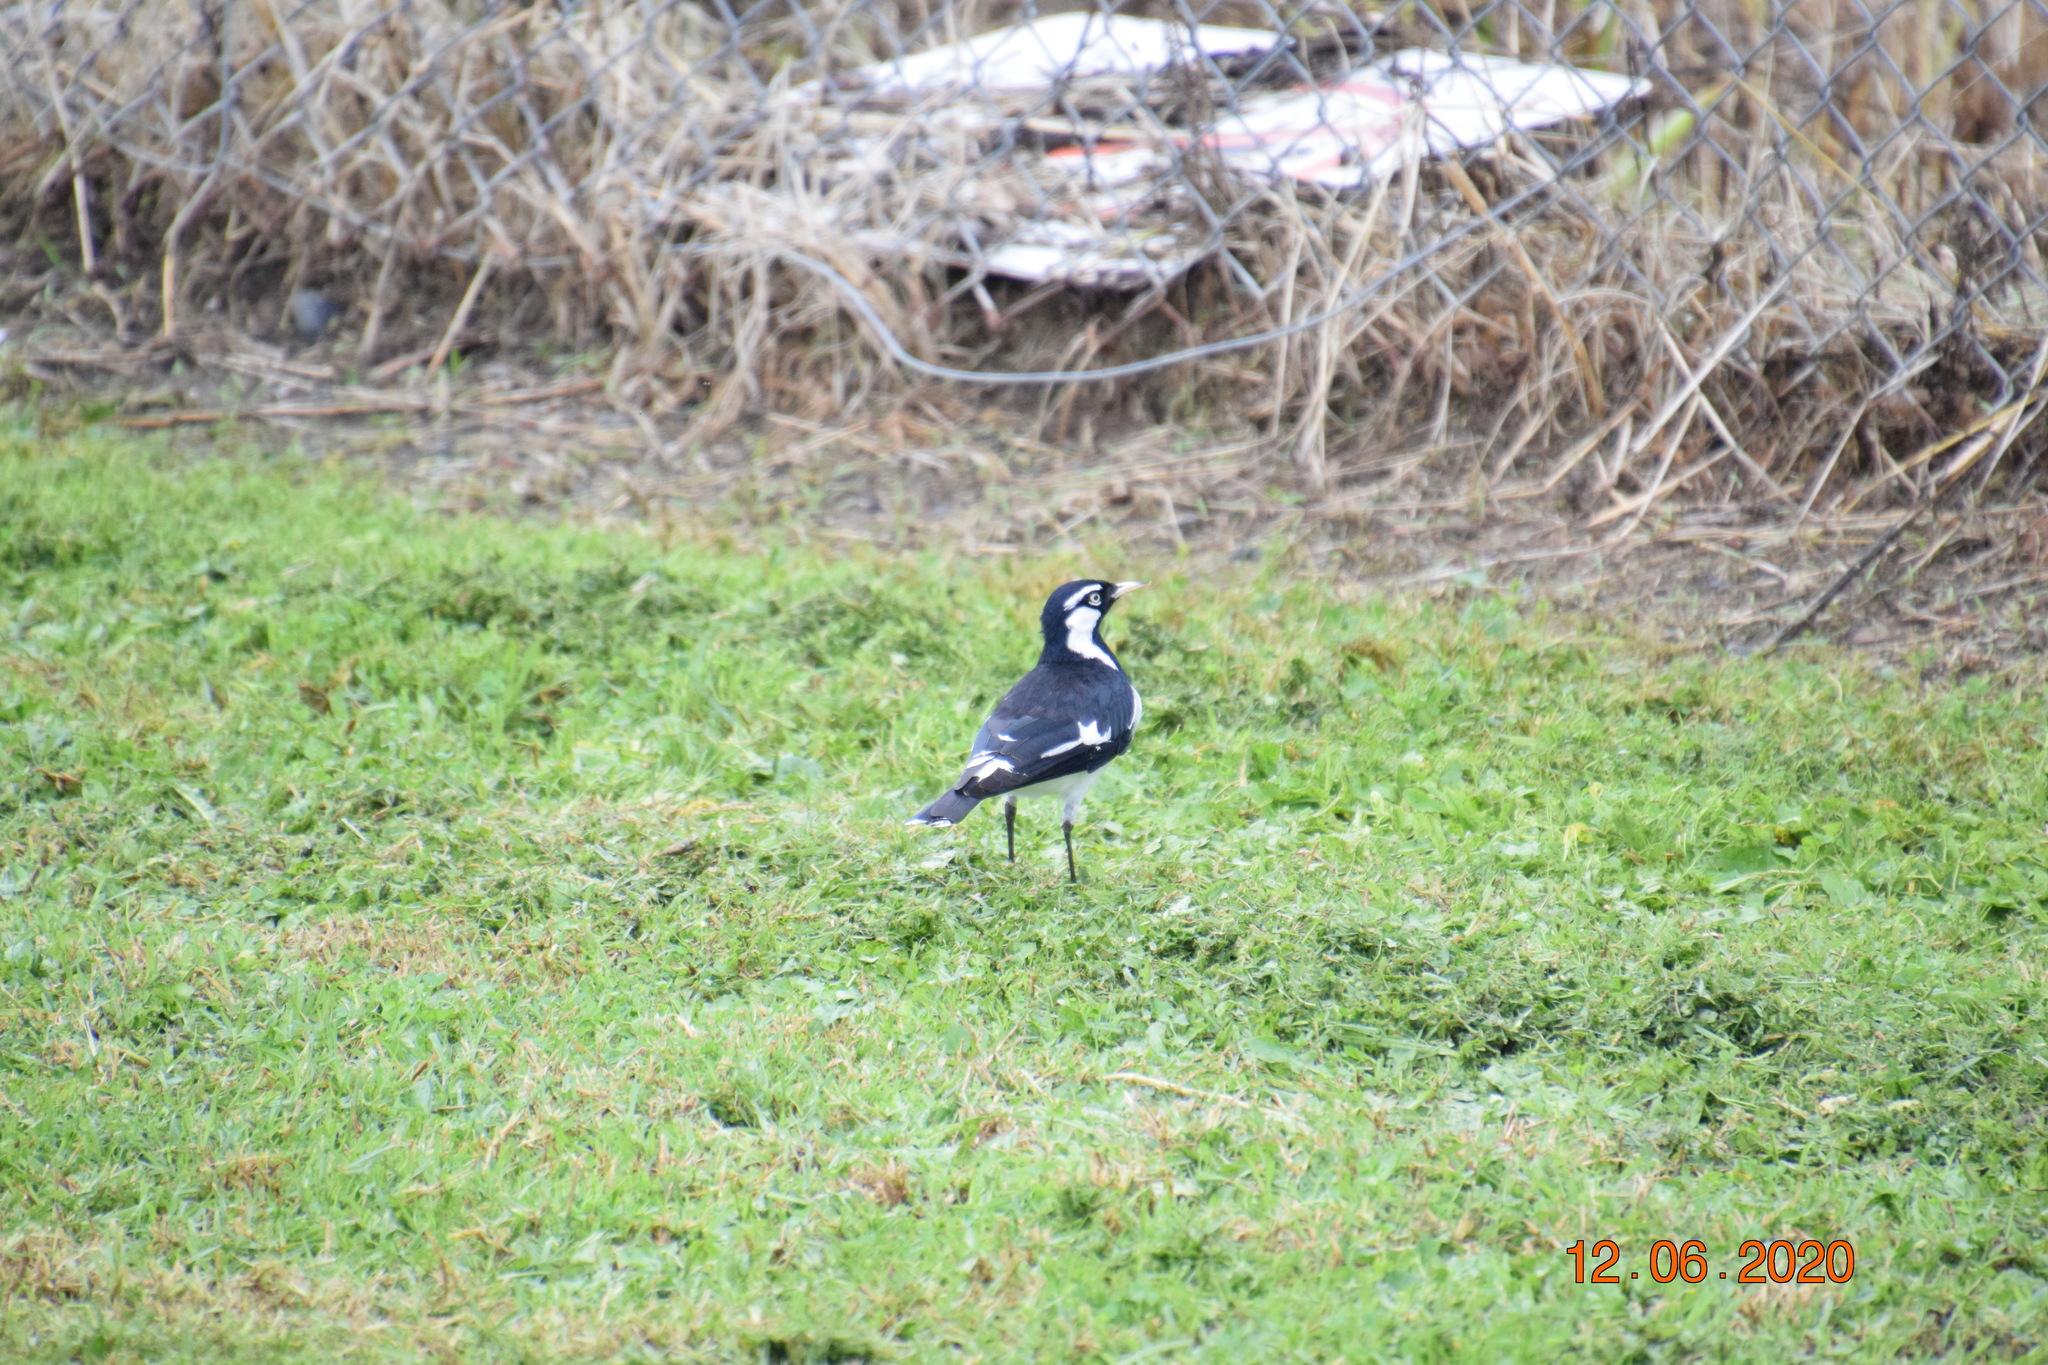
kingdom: Animalia
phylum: Chordata
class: Aves
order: Passeriformes
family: Monarchidae
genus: Grallina
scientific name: Grallina cyanoleuca
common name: Magpie-lark
